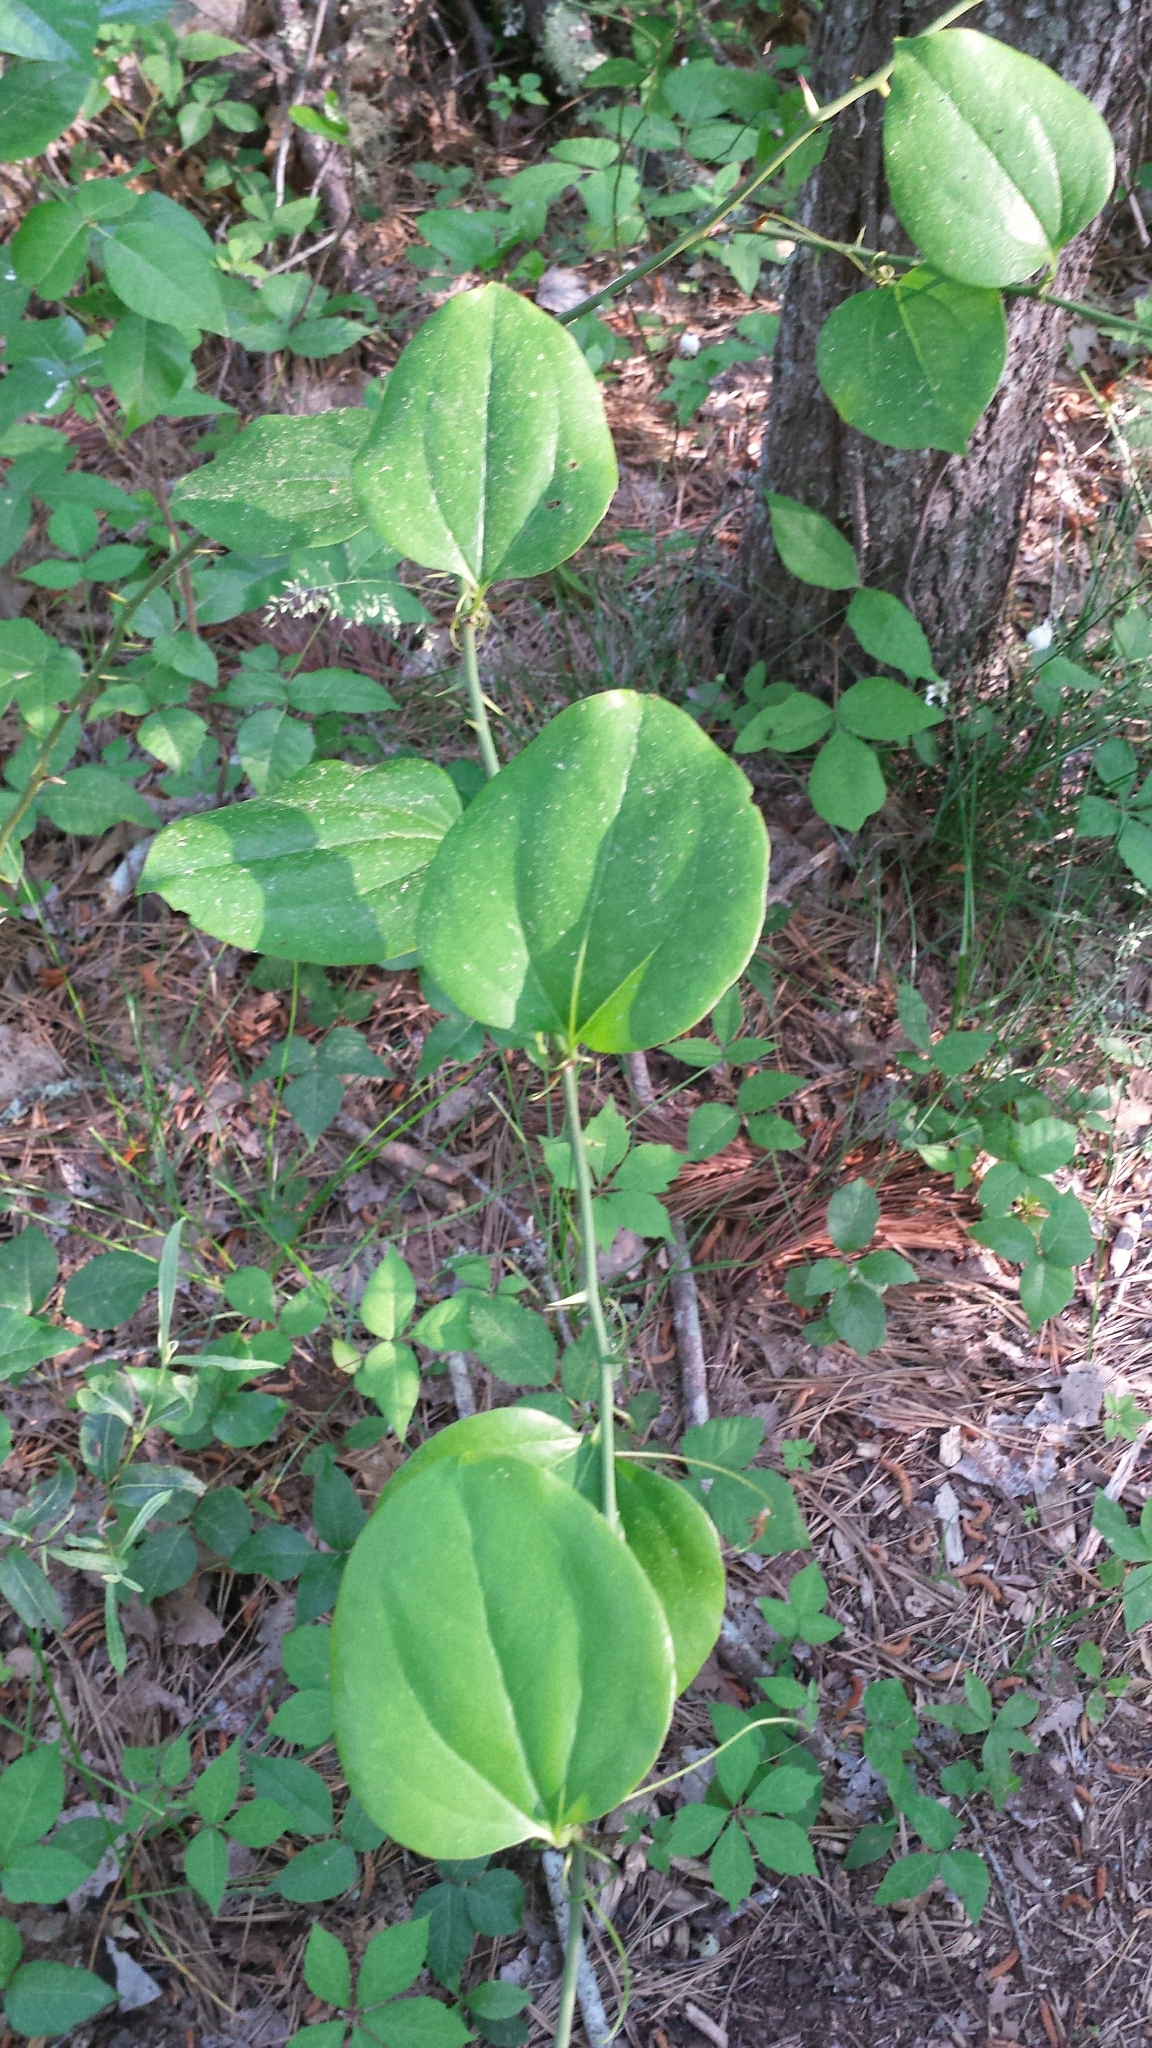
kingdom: Plantae
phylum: Tracheophyta
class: Liliopsida
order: Liliales
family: Smilacaceae
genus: Smilax
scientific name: Smilax rotundifolia
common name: Bullbriar
